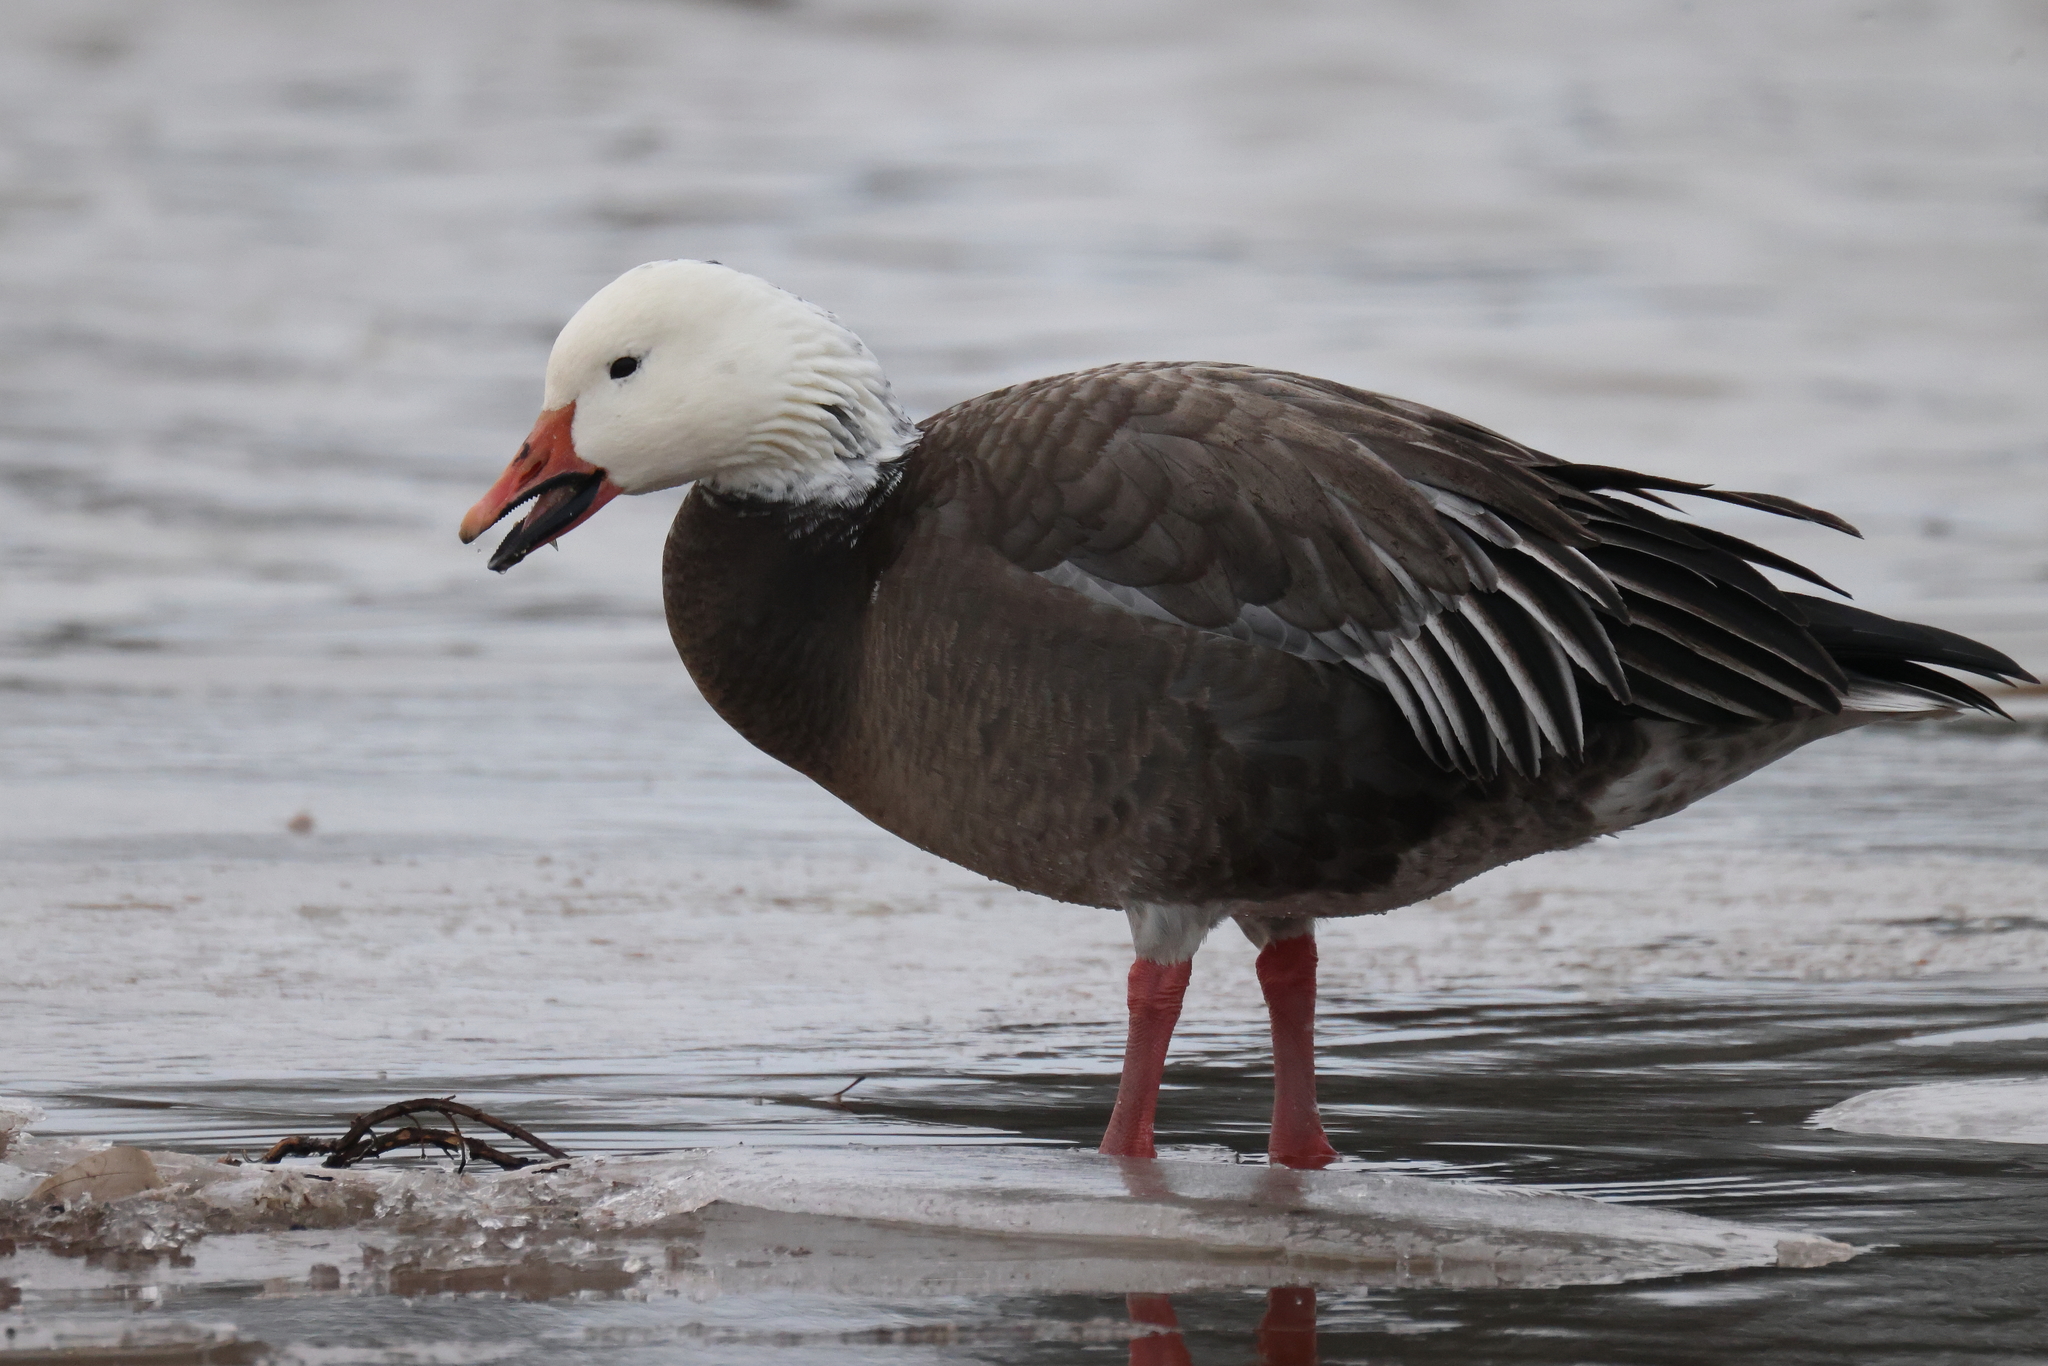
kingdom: Animalia
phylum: Chordata
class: Aves
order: Anseriformes
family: Anatidae
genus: Anser
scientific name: Anser caerulescens
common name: Snow goose
